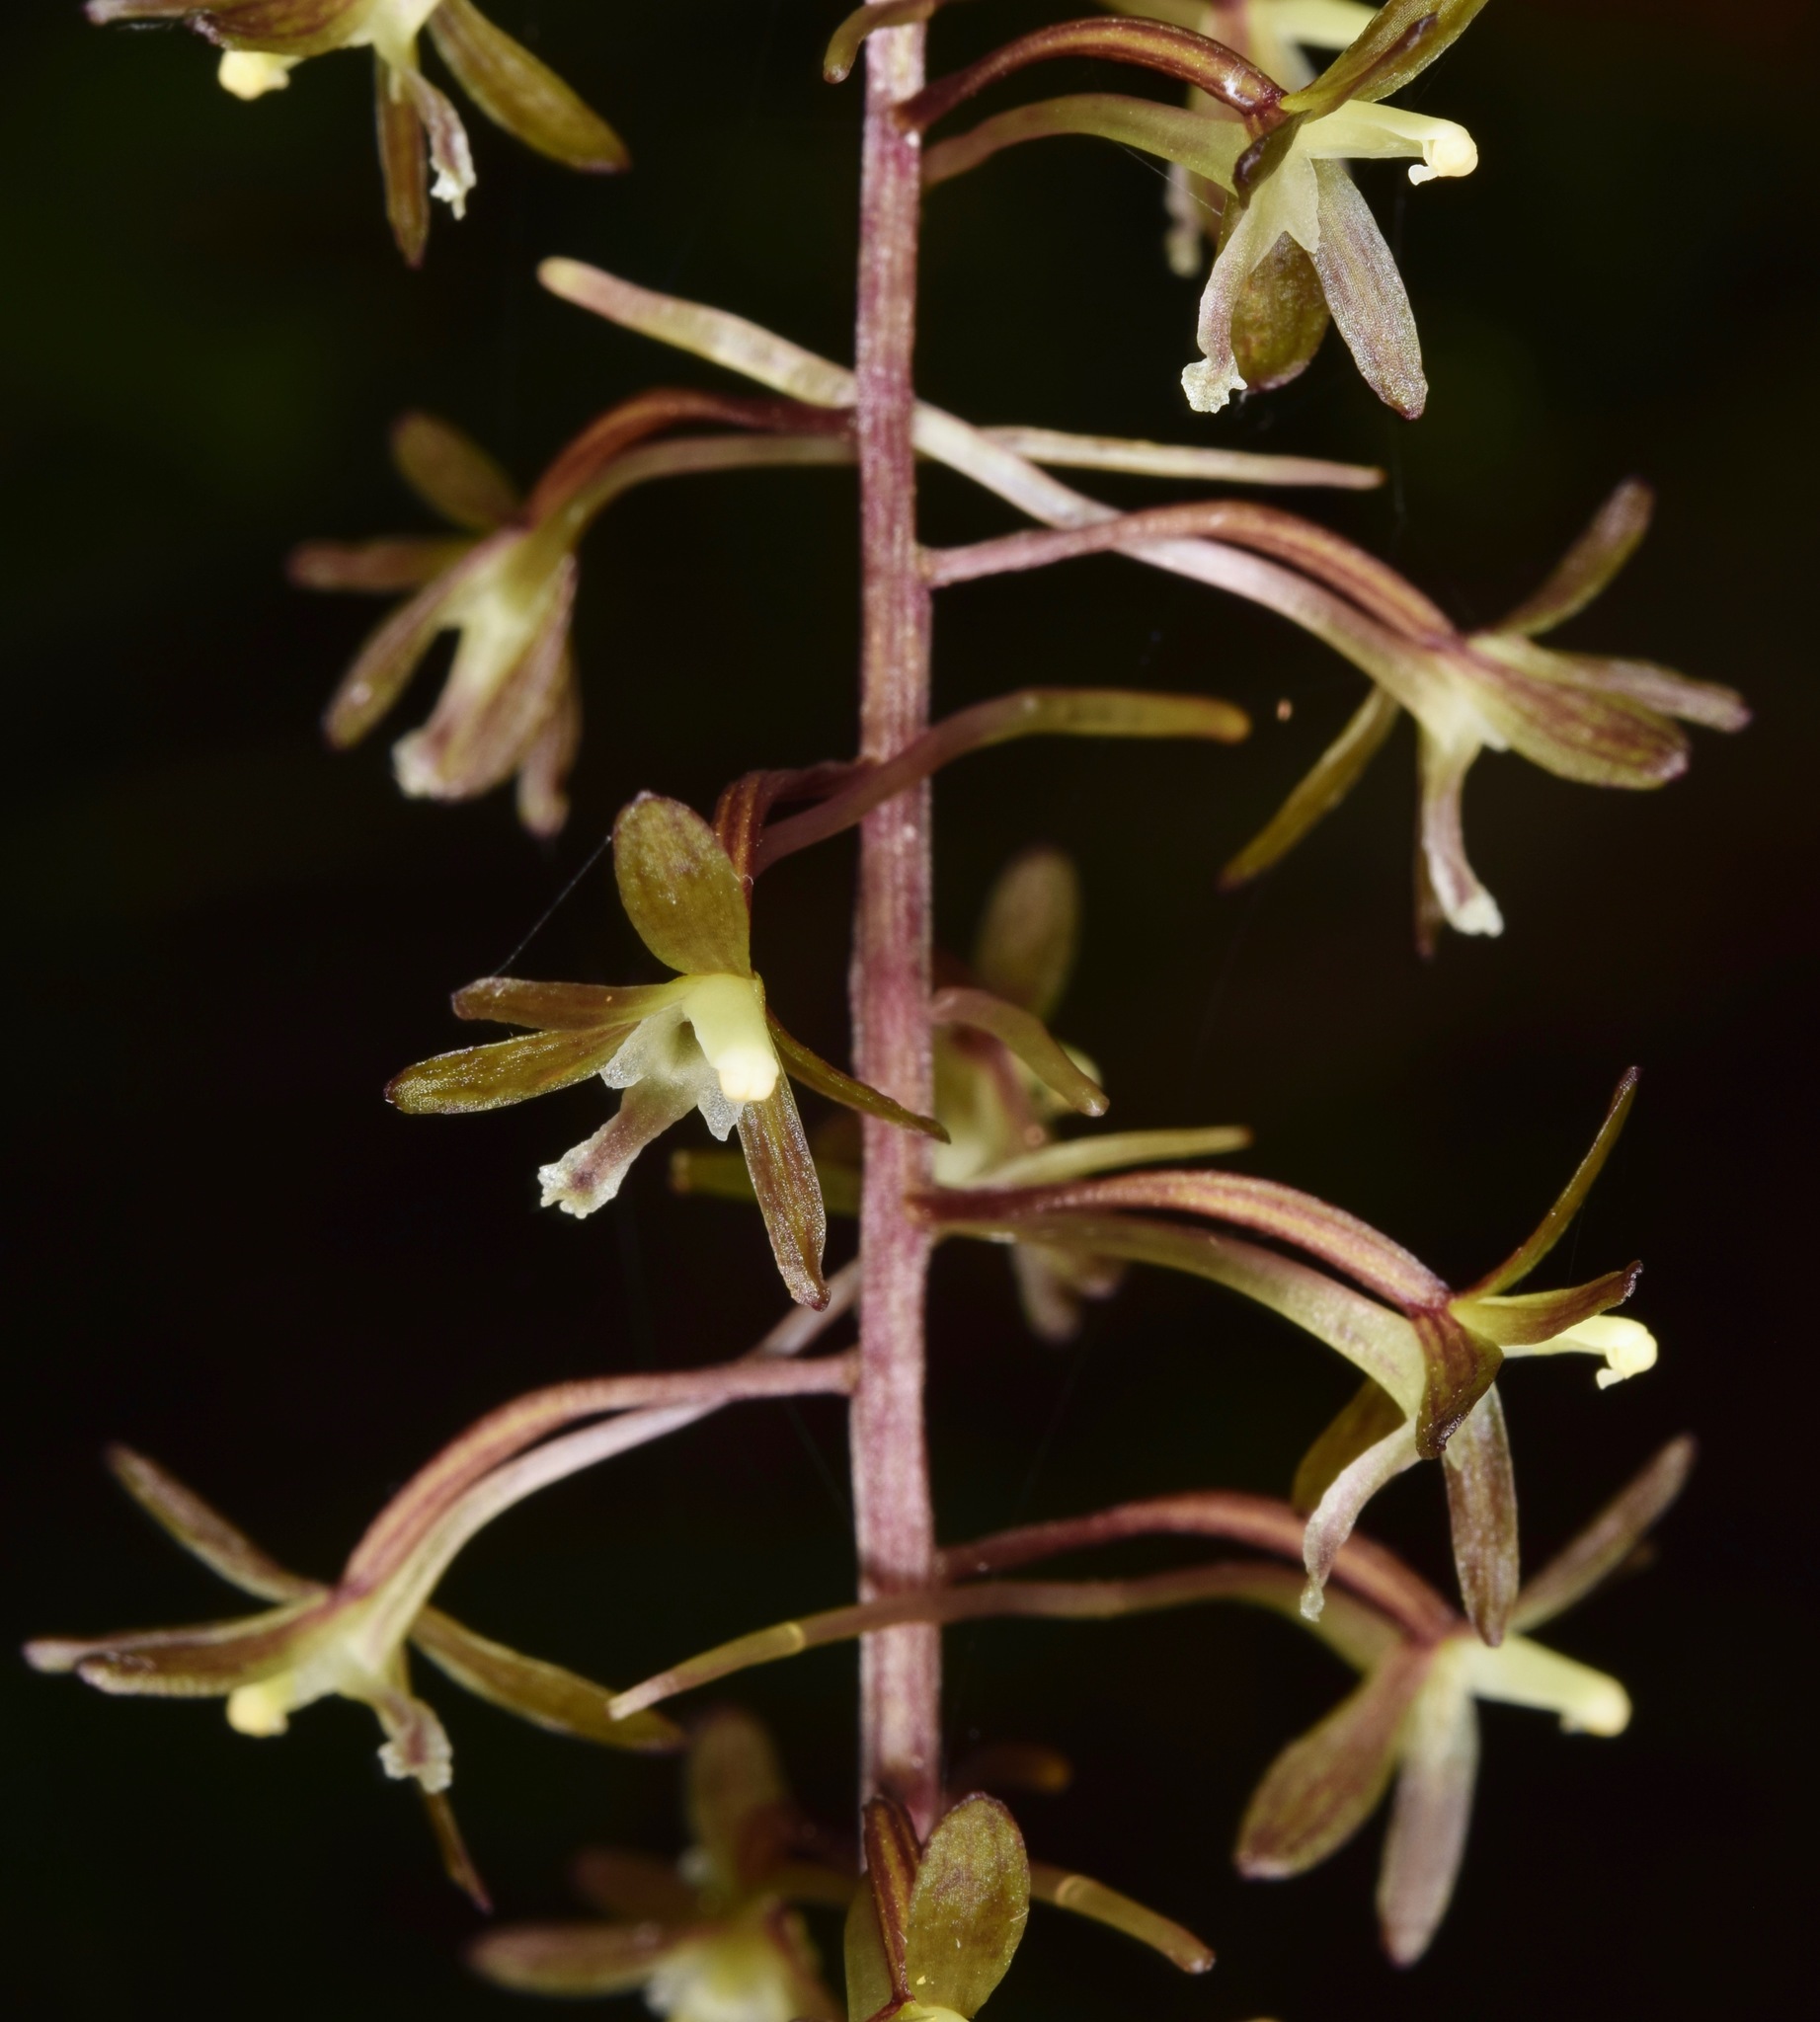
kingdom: Plantae
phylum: Tracheophyta
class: Liliopsida
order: Asparagales
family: Orchidaceae
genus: Tipularia
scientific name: Tipularia discolor
